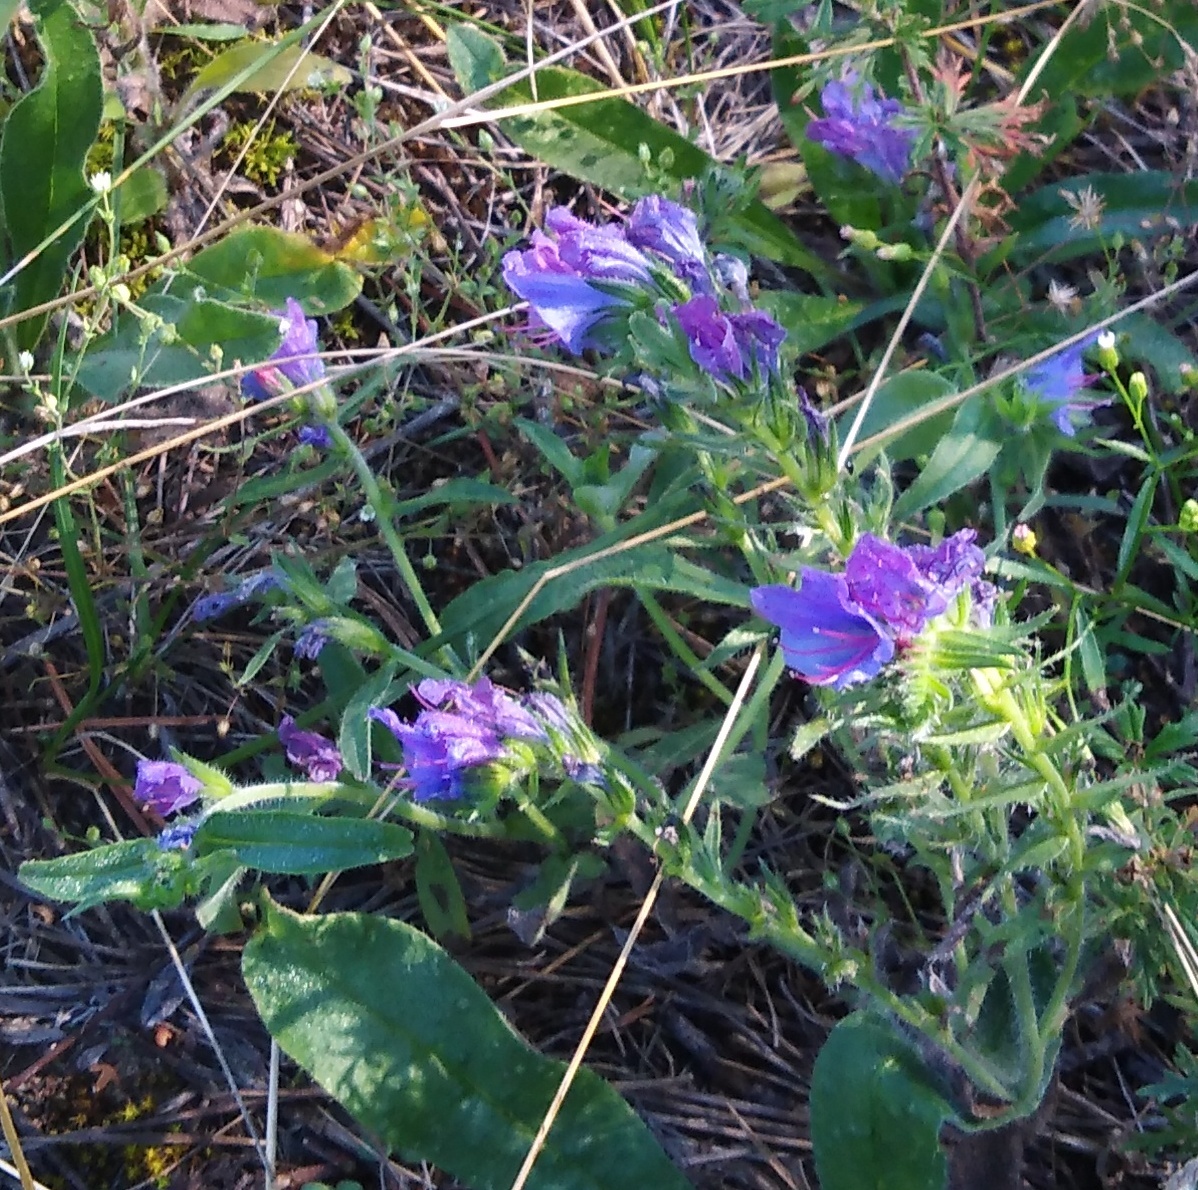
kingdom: Plantae
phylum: Tracheophyta
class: Magnoliopsida
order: Boraginales
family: Boraginaceae
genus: Echium
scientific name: Echium vulgare
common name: Common viper's bugloss
